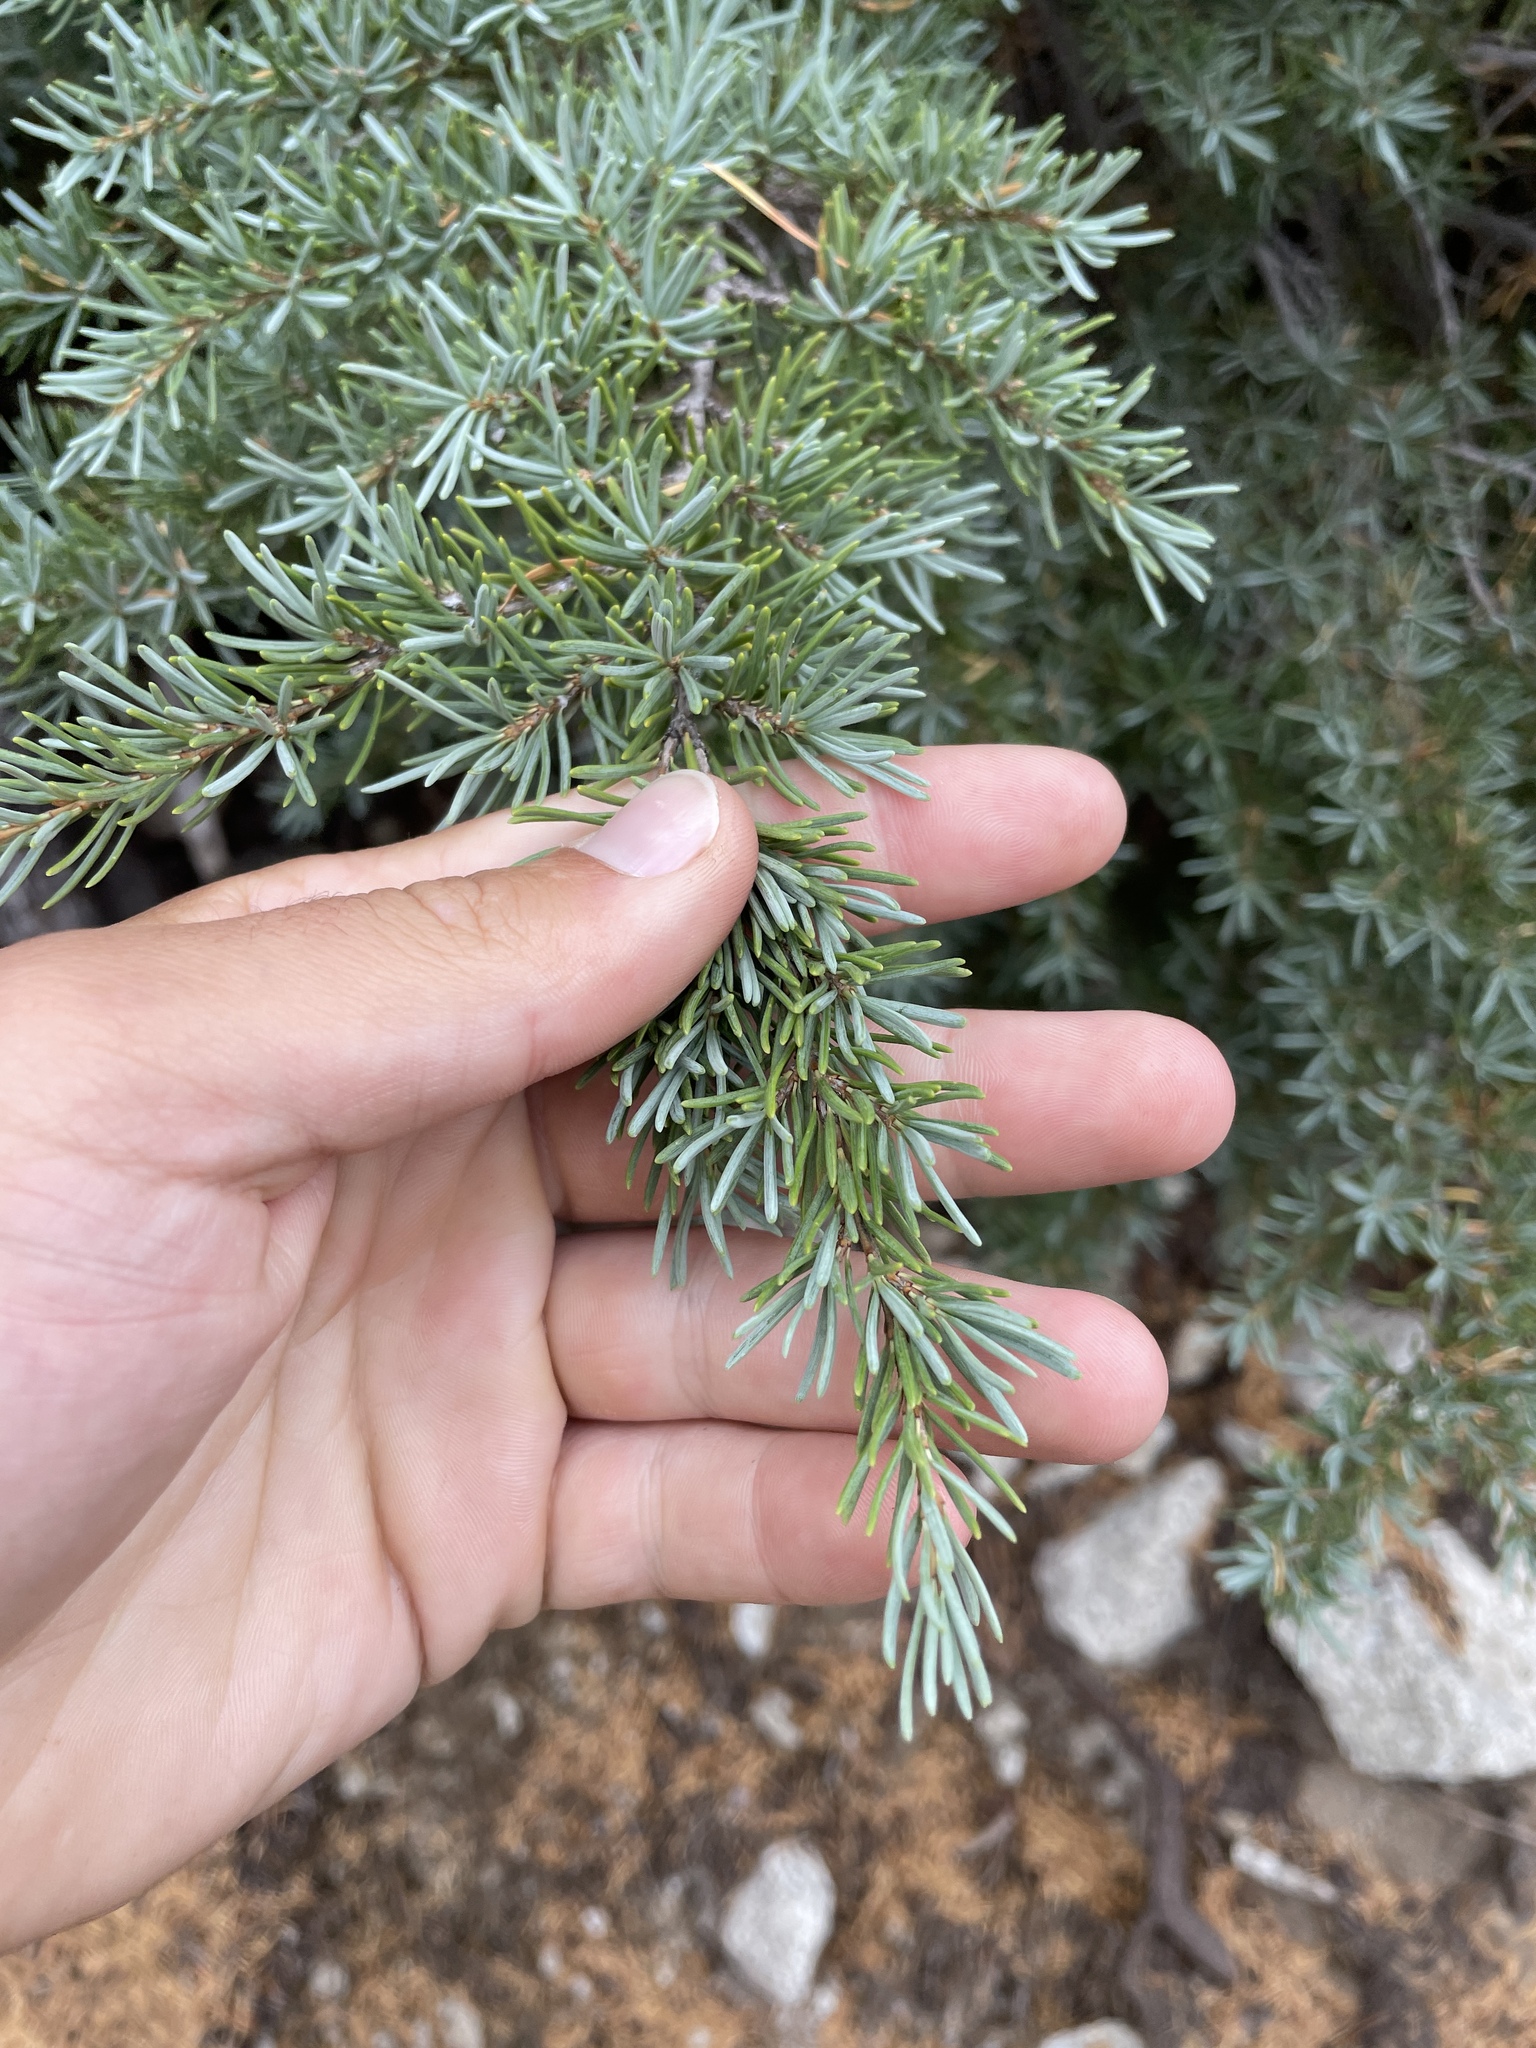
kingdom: Plantae
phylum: Tracheophyta
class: Pinopsida
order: Pinales
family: Pinaceae
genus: Tsuga
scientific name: Tsuga mertensiana
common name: Mountain hemlock
